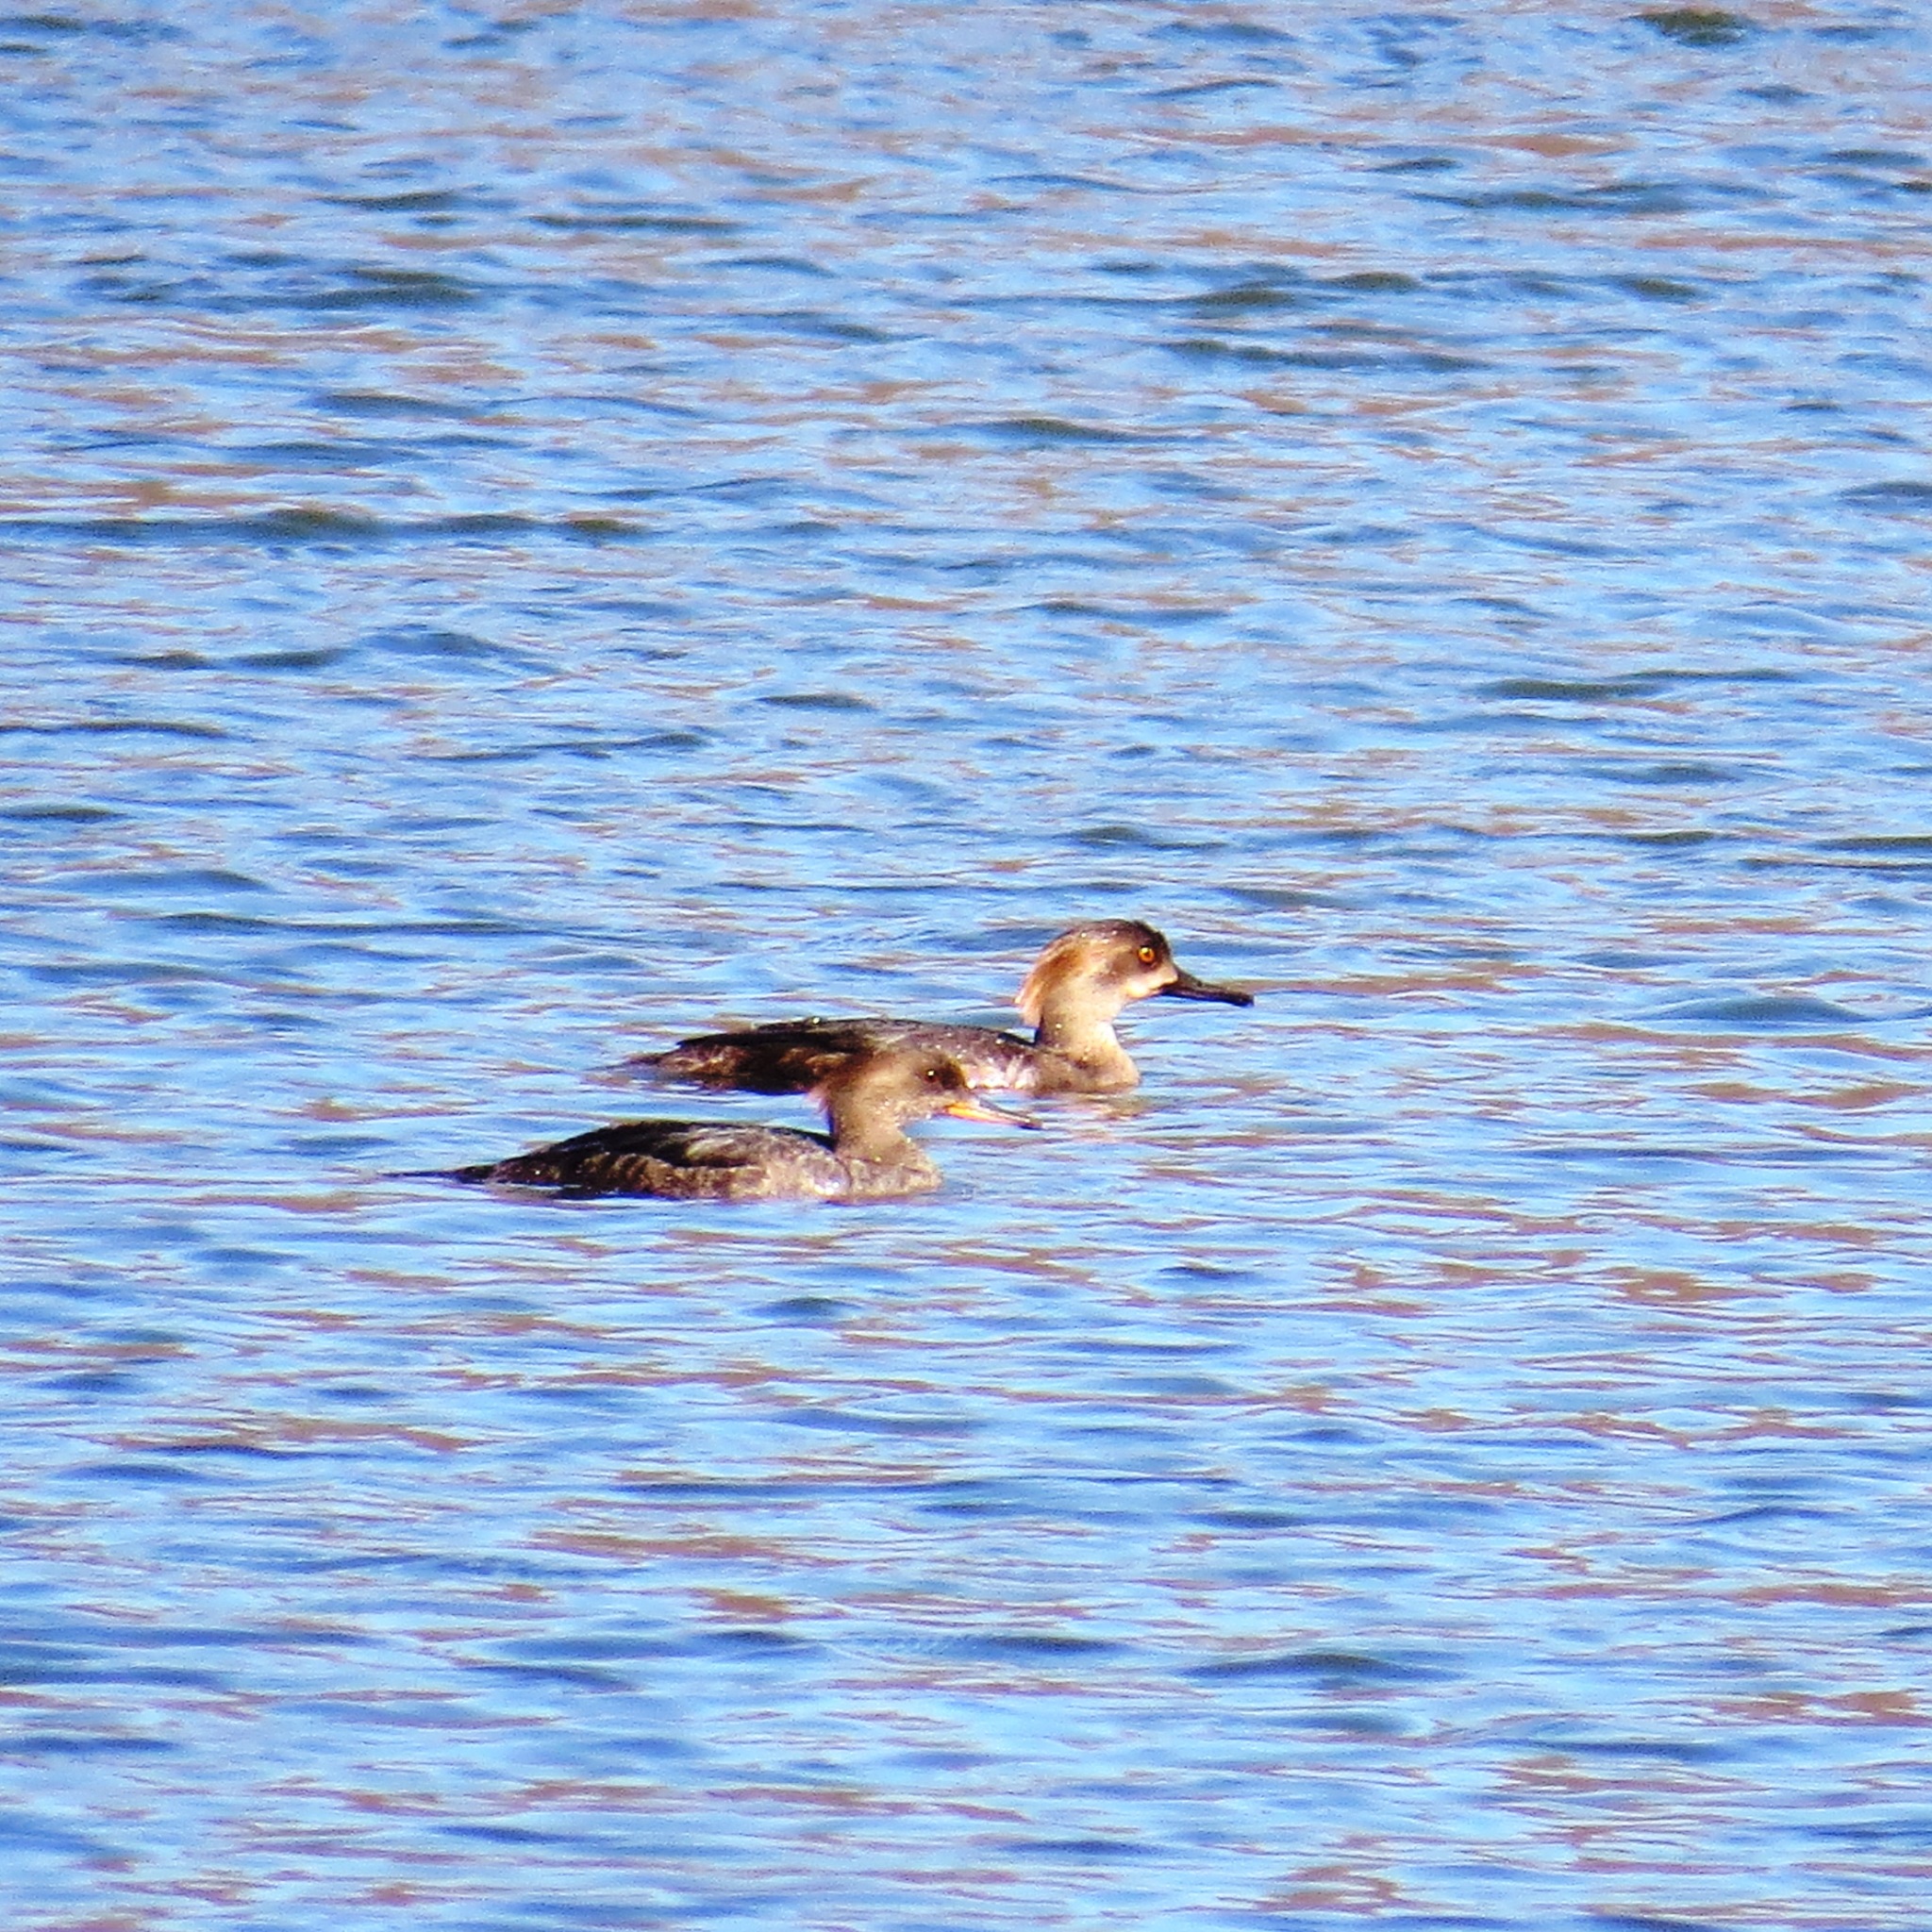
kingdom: Animalia
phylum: Chordata
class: Aves
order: Anseriformes
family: Anatidae
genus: Lophodytes
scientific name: Lophodytes cucullatus
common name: Hooded merganser
